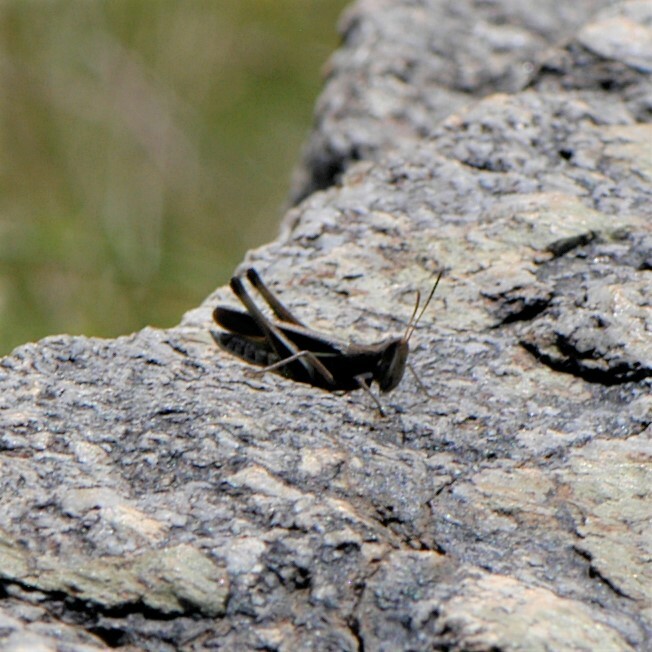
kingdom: Animalia
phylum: Arthropoda
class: Insecta
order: Orthoptera
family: Acrididae
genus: Syrbula
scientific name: Syrbula montezuma
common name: Montezuma's grasshopper
